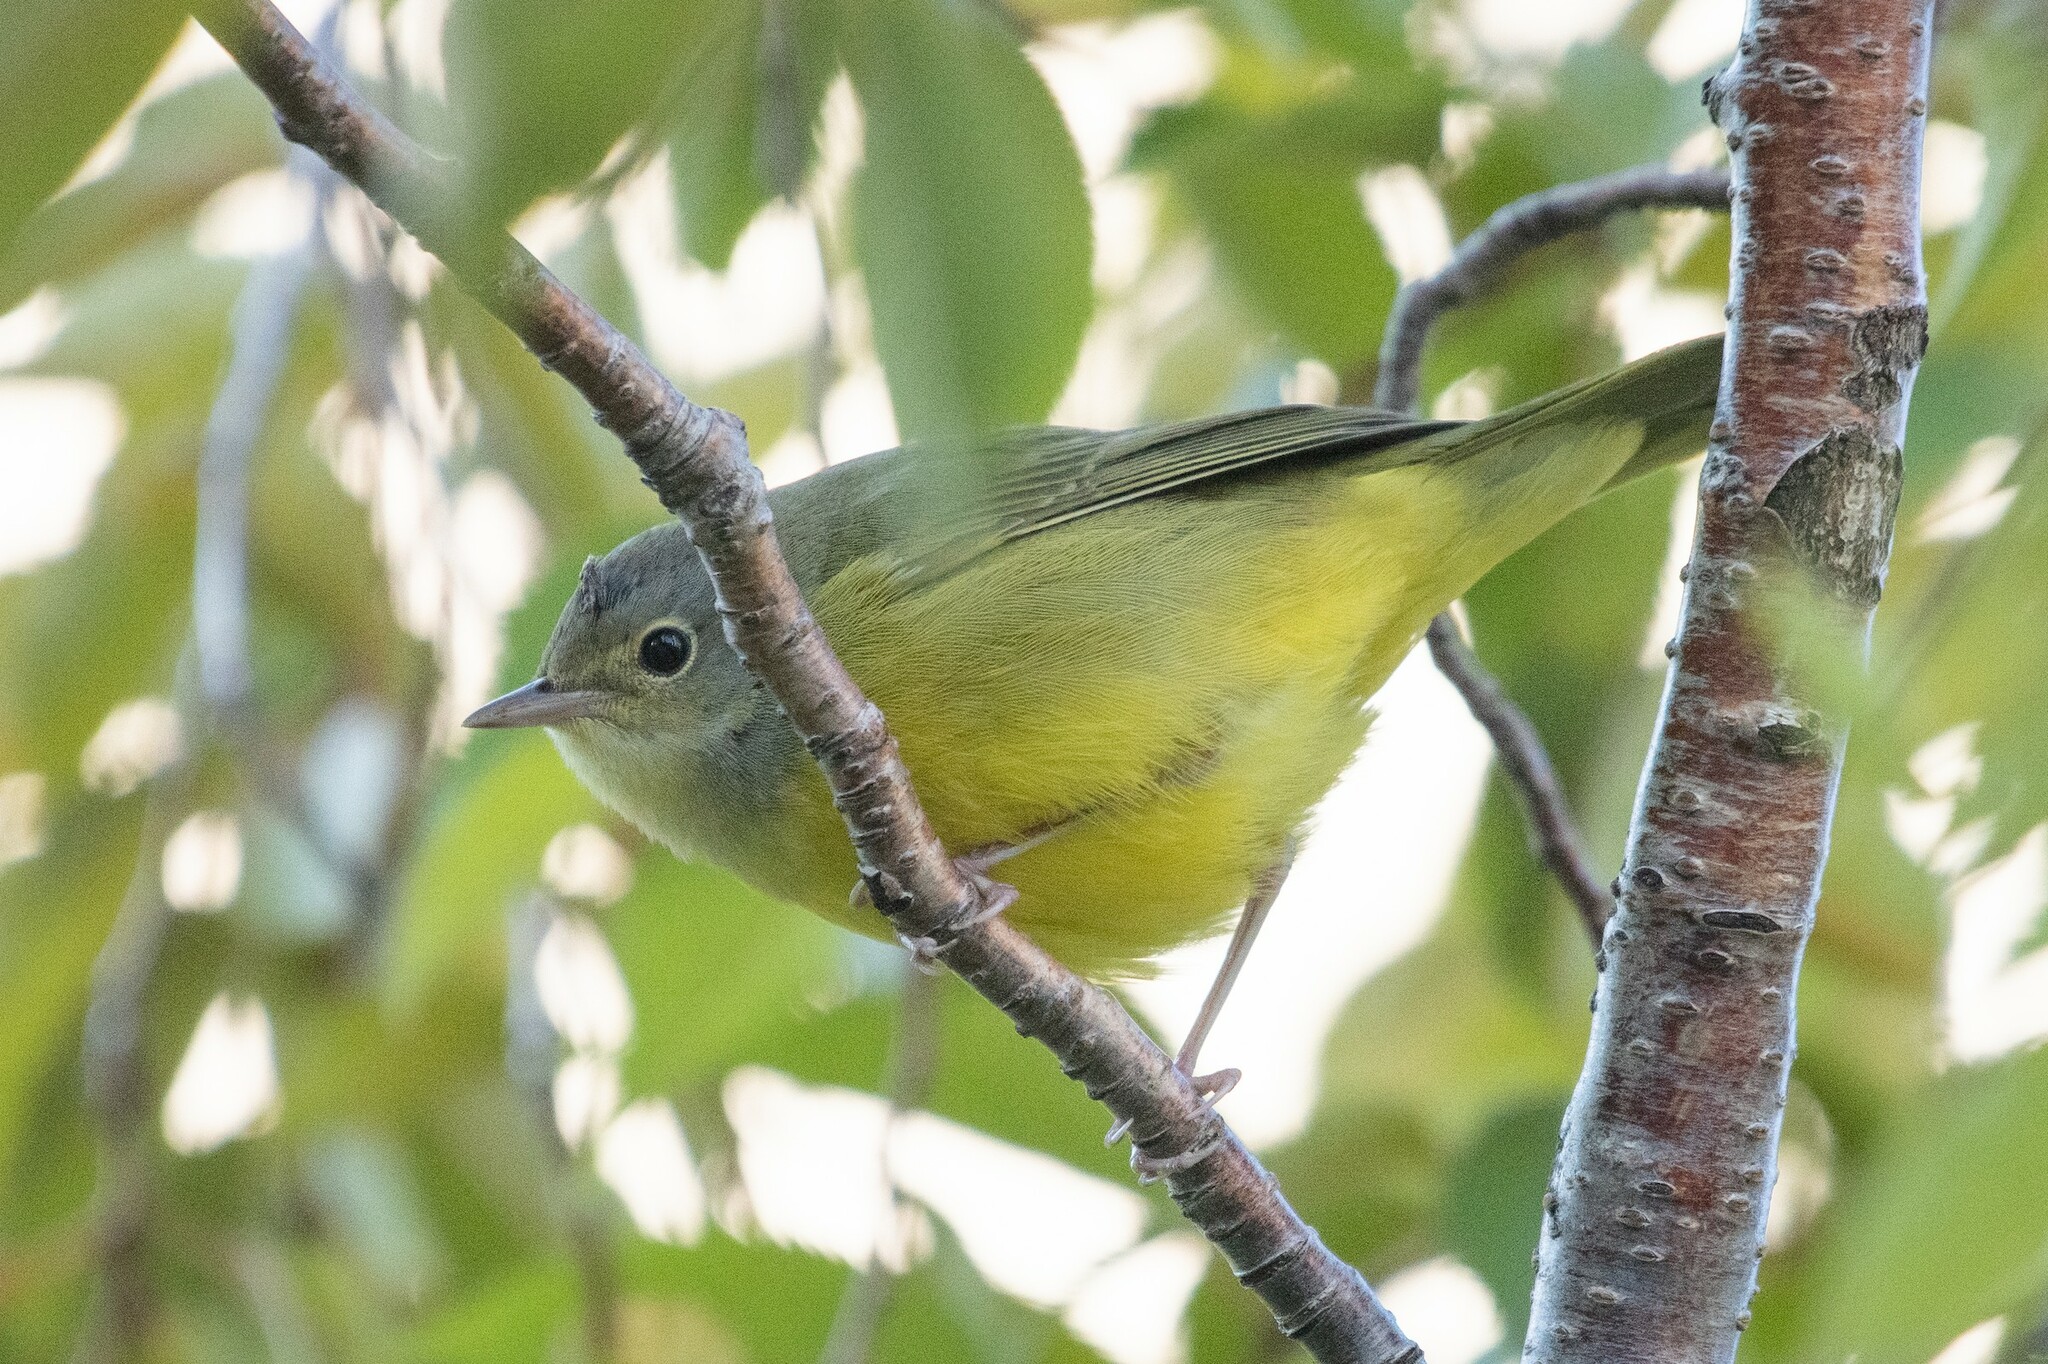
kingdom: Animalia
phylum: Chordata
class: Aves
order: Passeriformes
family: Parulidae
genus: Geothlypis
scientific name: Geothlypis philadelphia
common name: Mourning warbler
